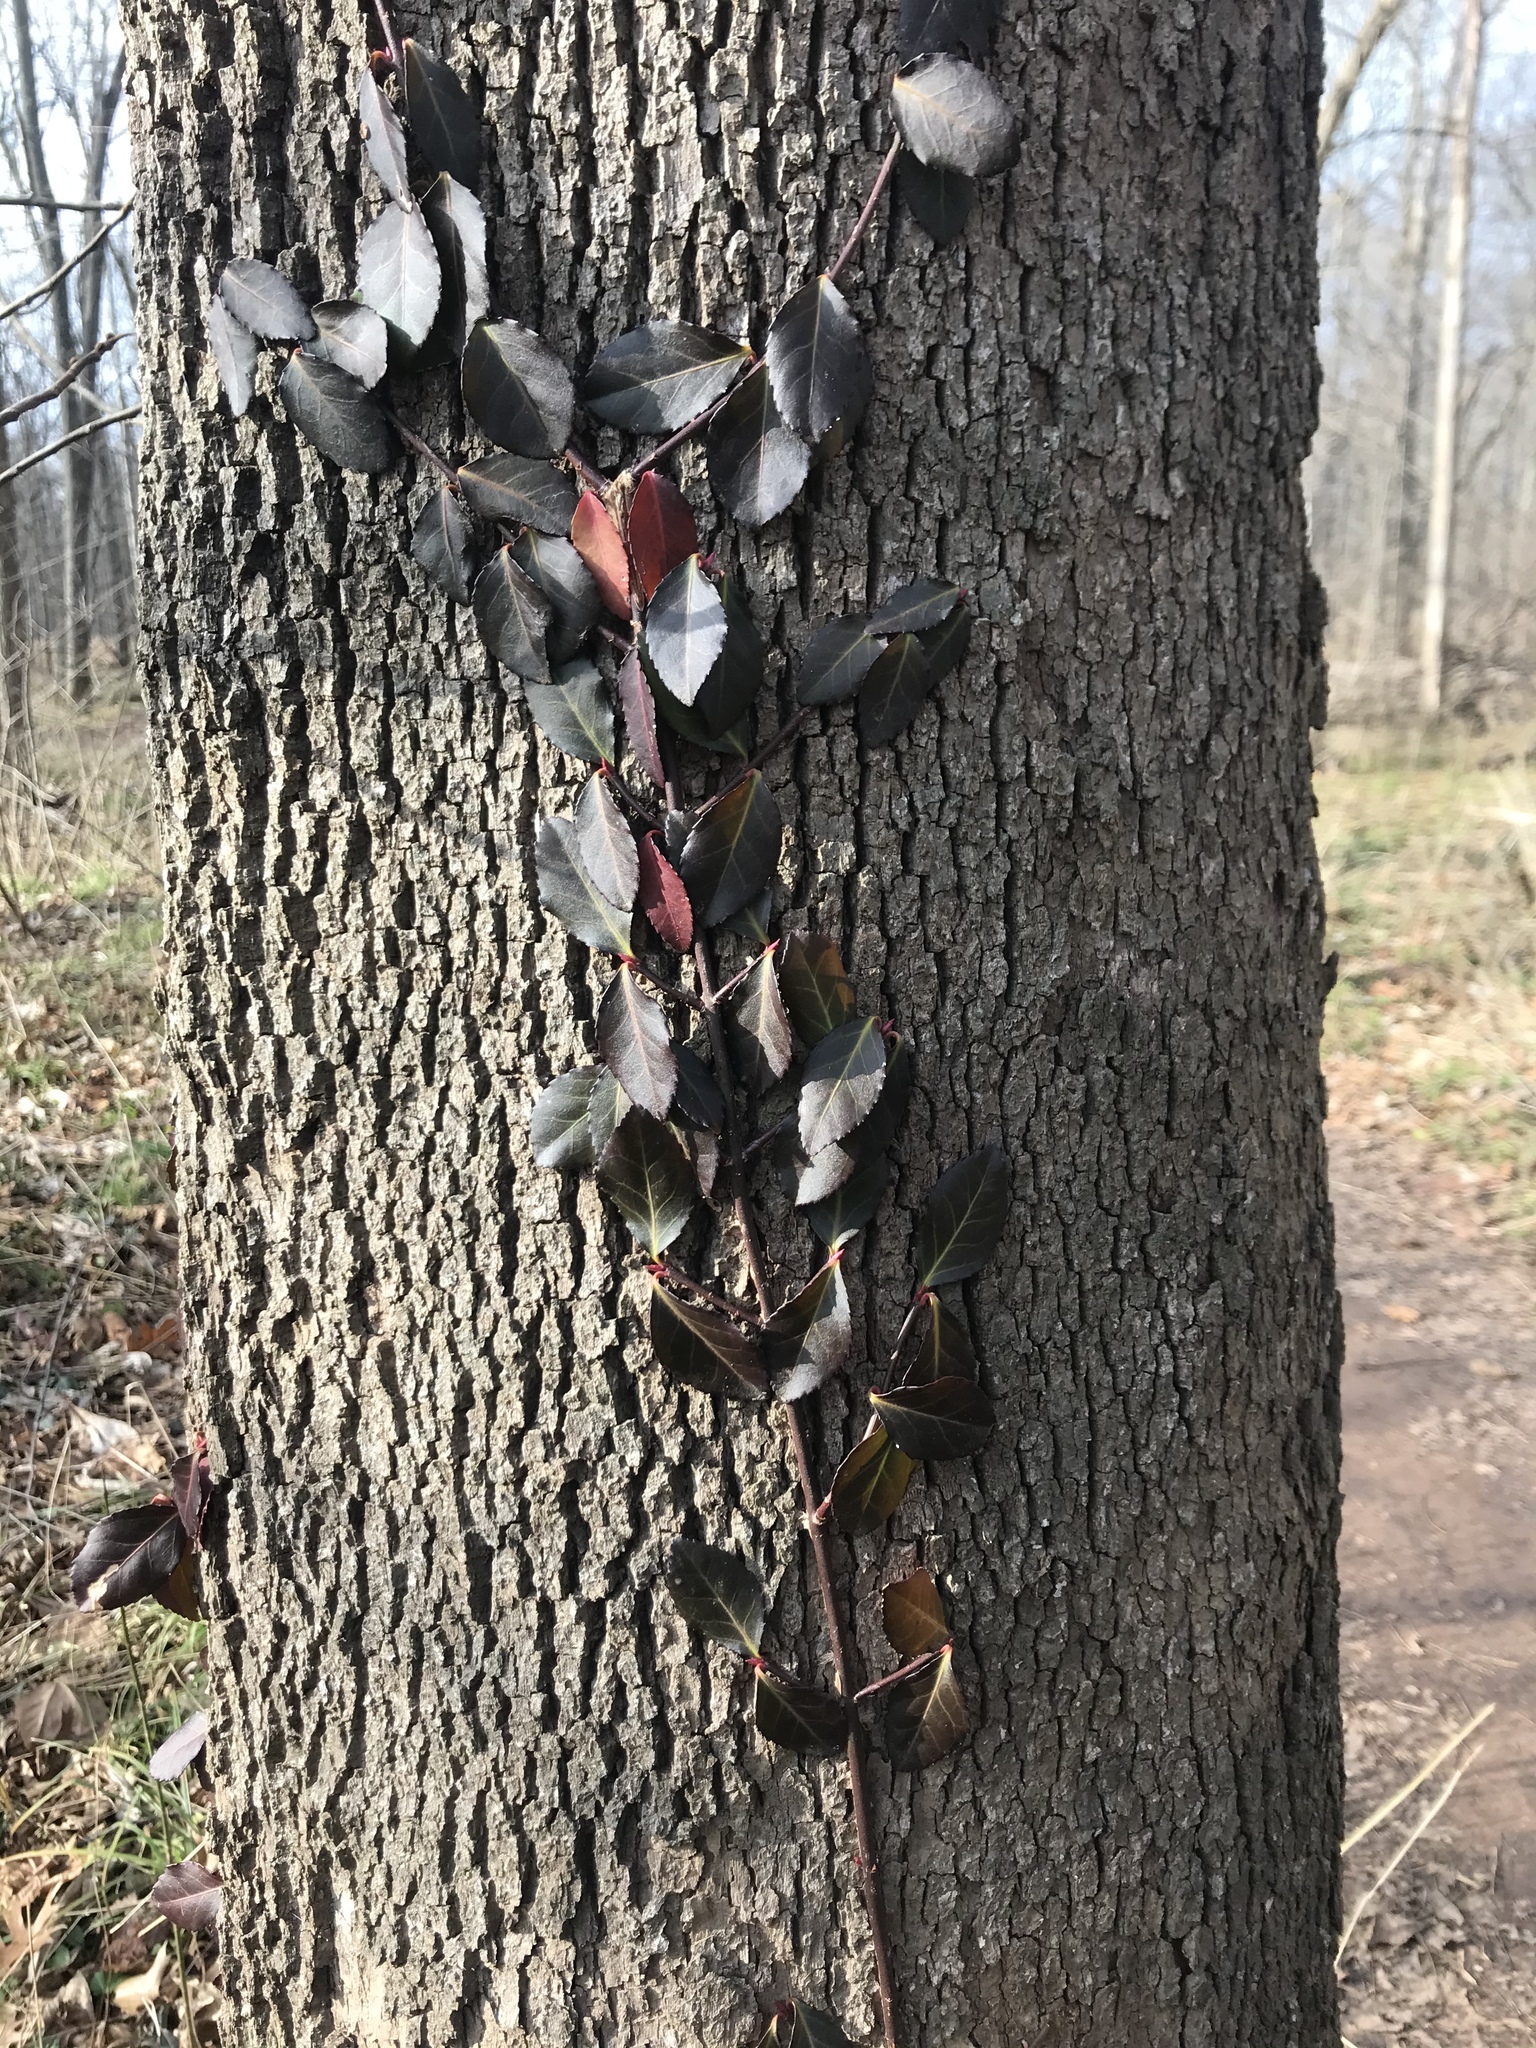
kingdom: Plantae
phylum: Tracheophyta
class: Magnoliopsida
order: Celastrales
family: Celastraceae
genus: Euonymus
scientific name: Euonymus fortunei
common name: Climbing euonymus
